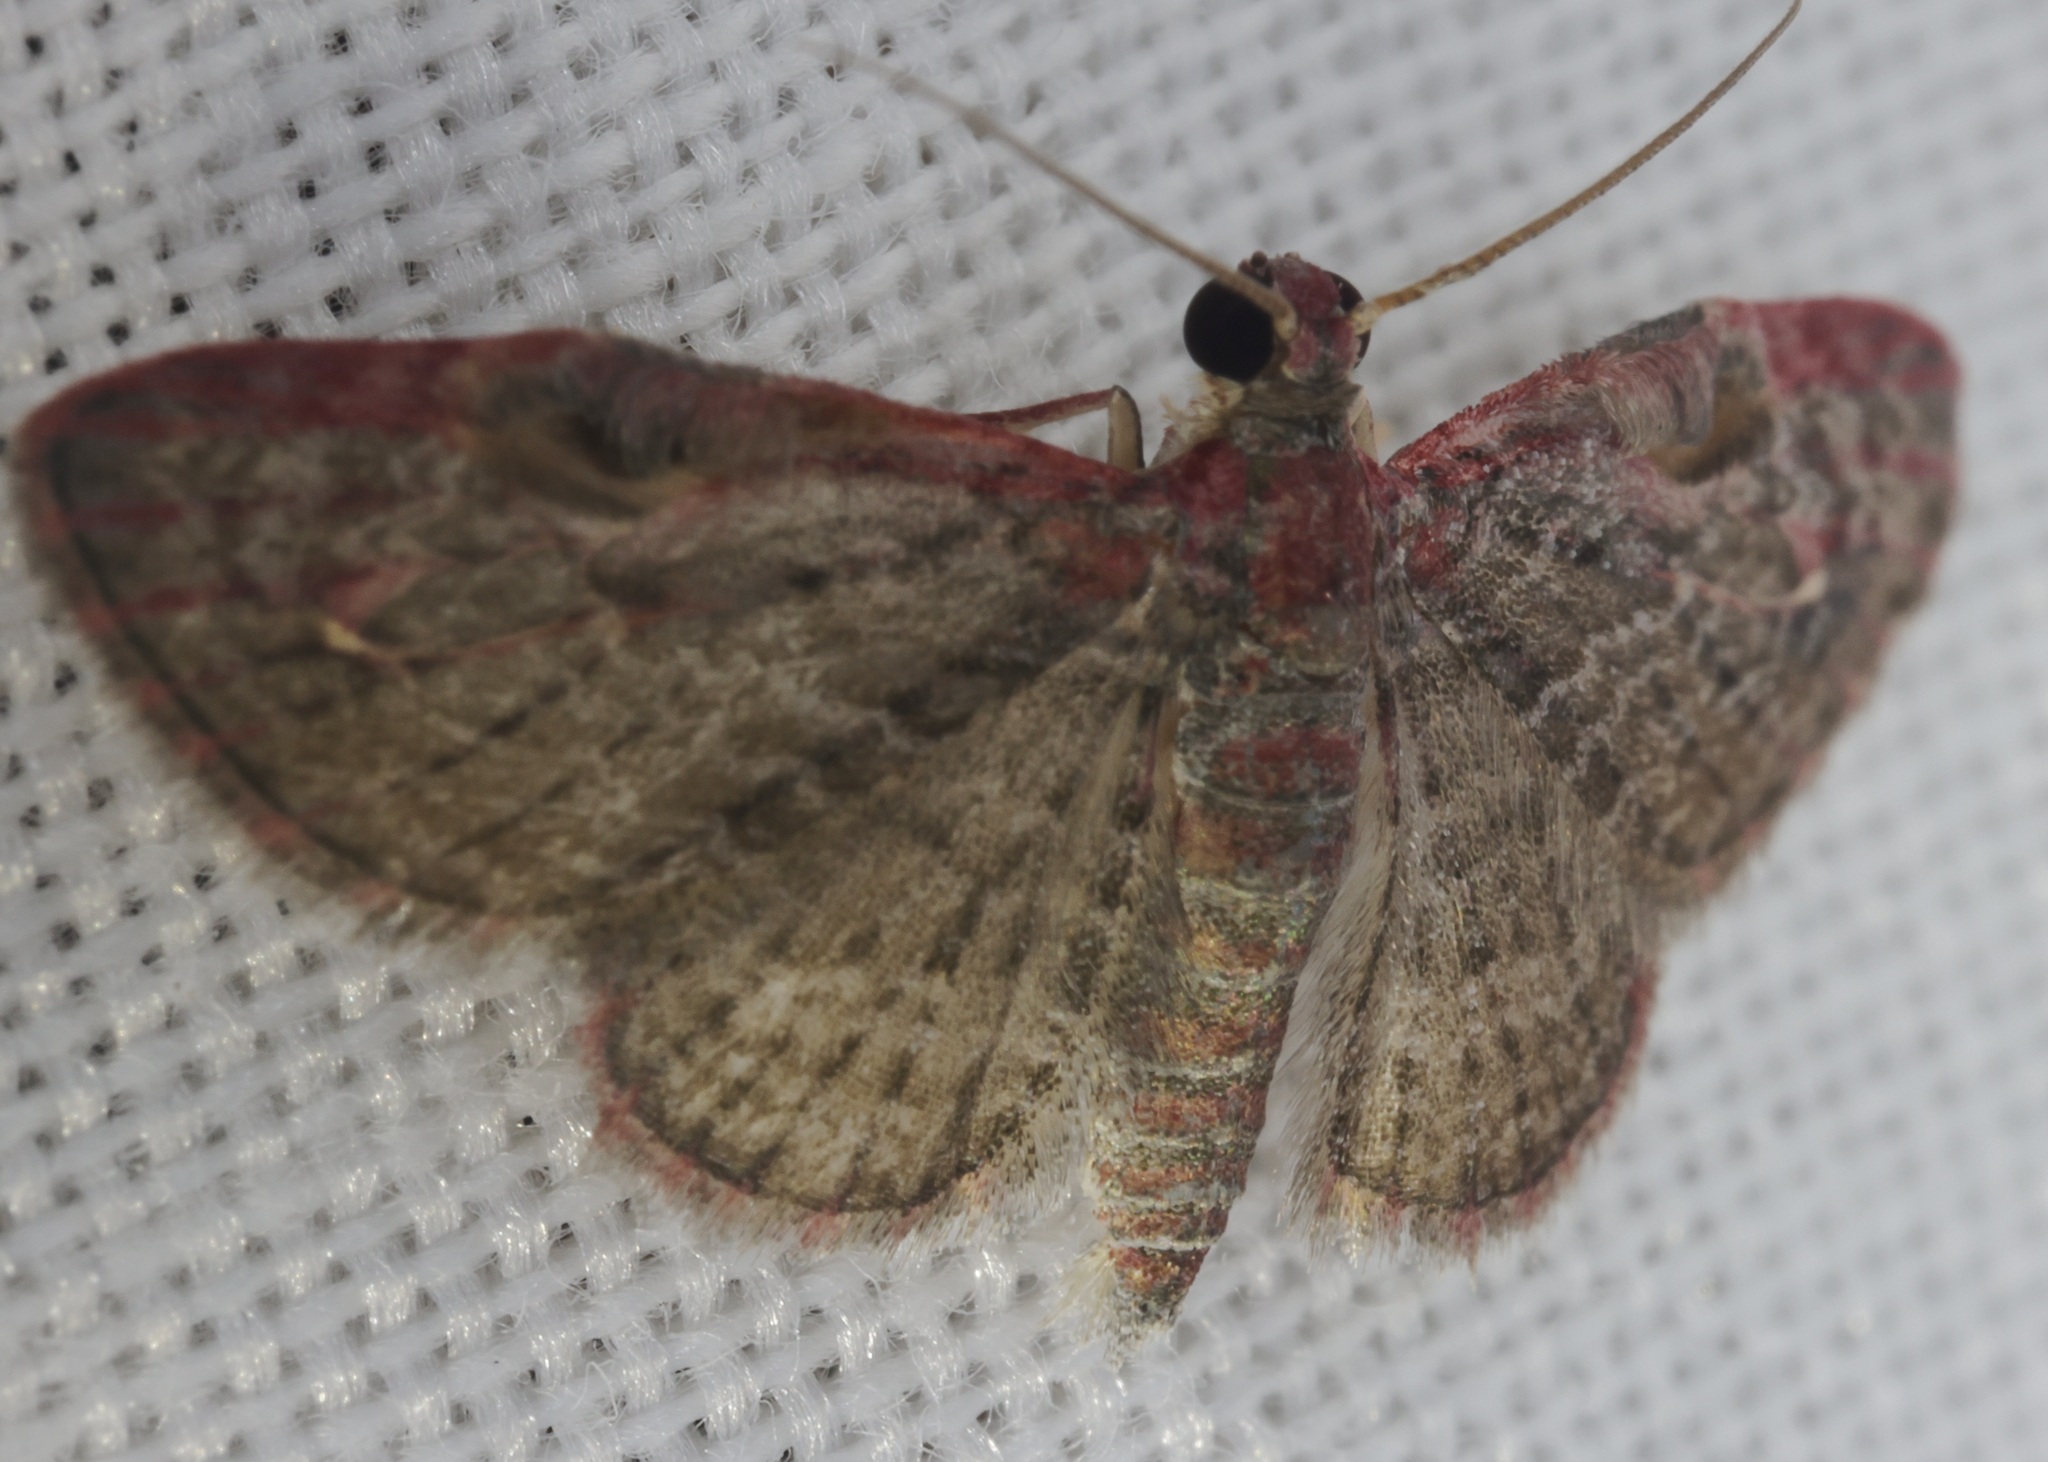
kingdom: Animalia
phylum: Arthropoda
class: Insecta
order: Lepidoptera
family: Geometridae
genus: Sigilliclystis
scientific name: Sigilliclystis
